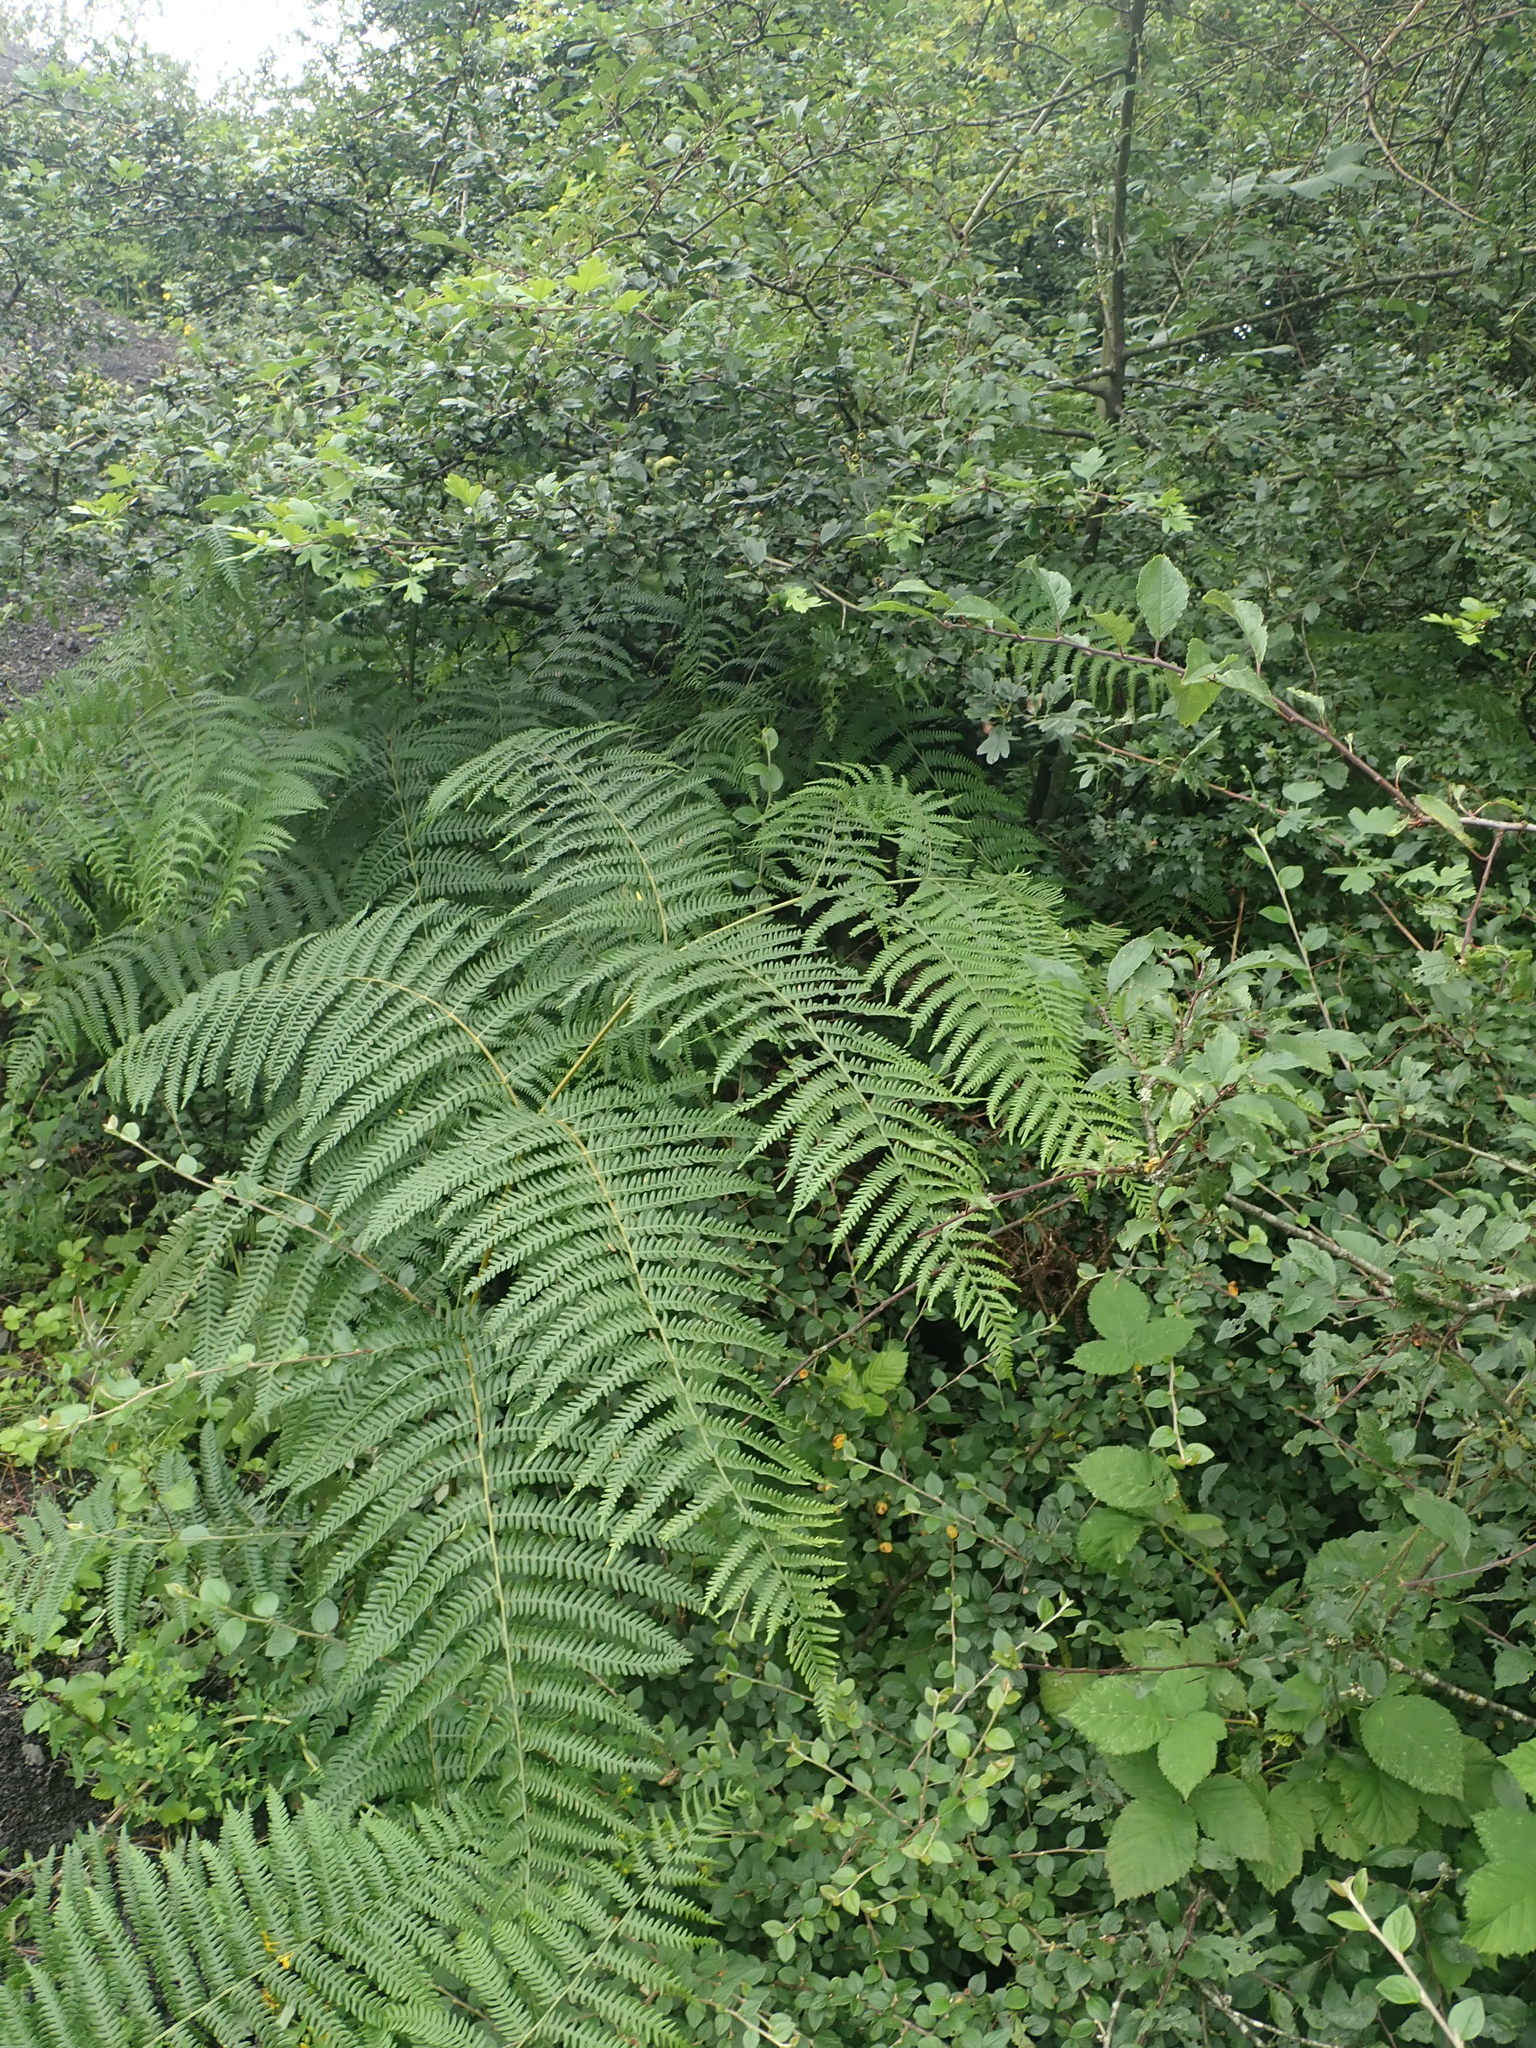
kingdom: Plantae
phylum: Tracheophyta
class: Polypodiopsida
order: Polypodiales
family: Dennstaedtiaceae
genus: Pteridium
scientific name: Pteridium aquilinum
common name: Bracken
